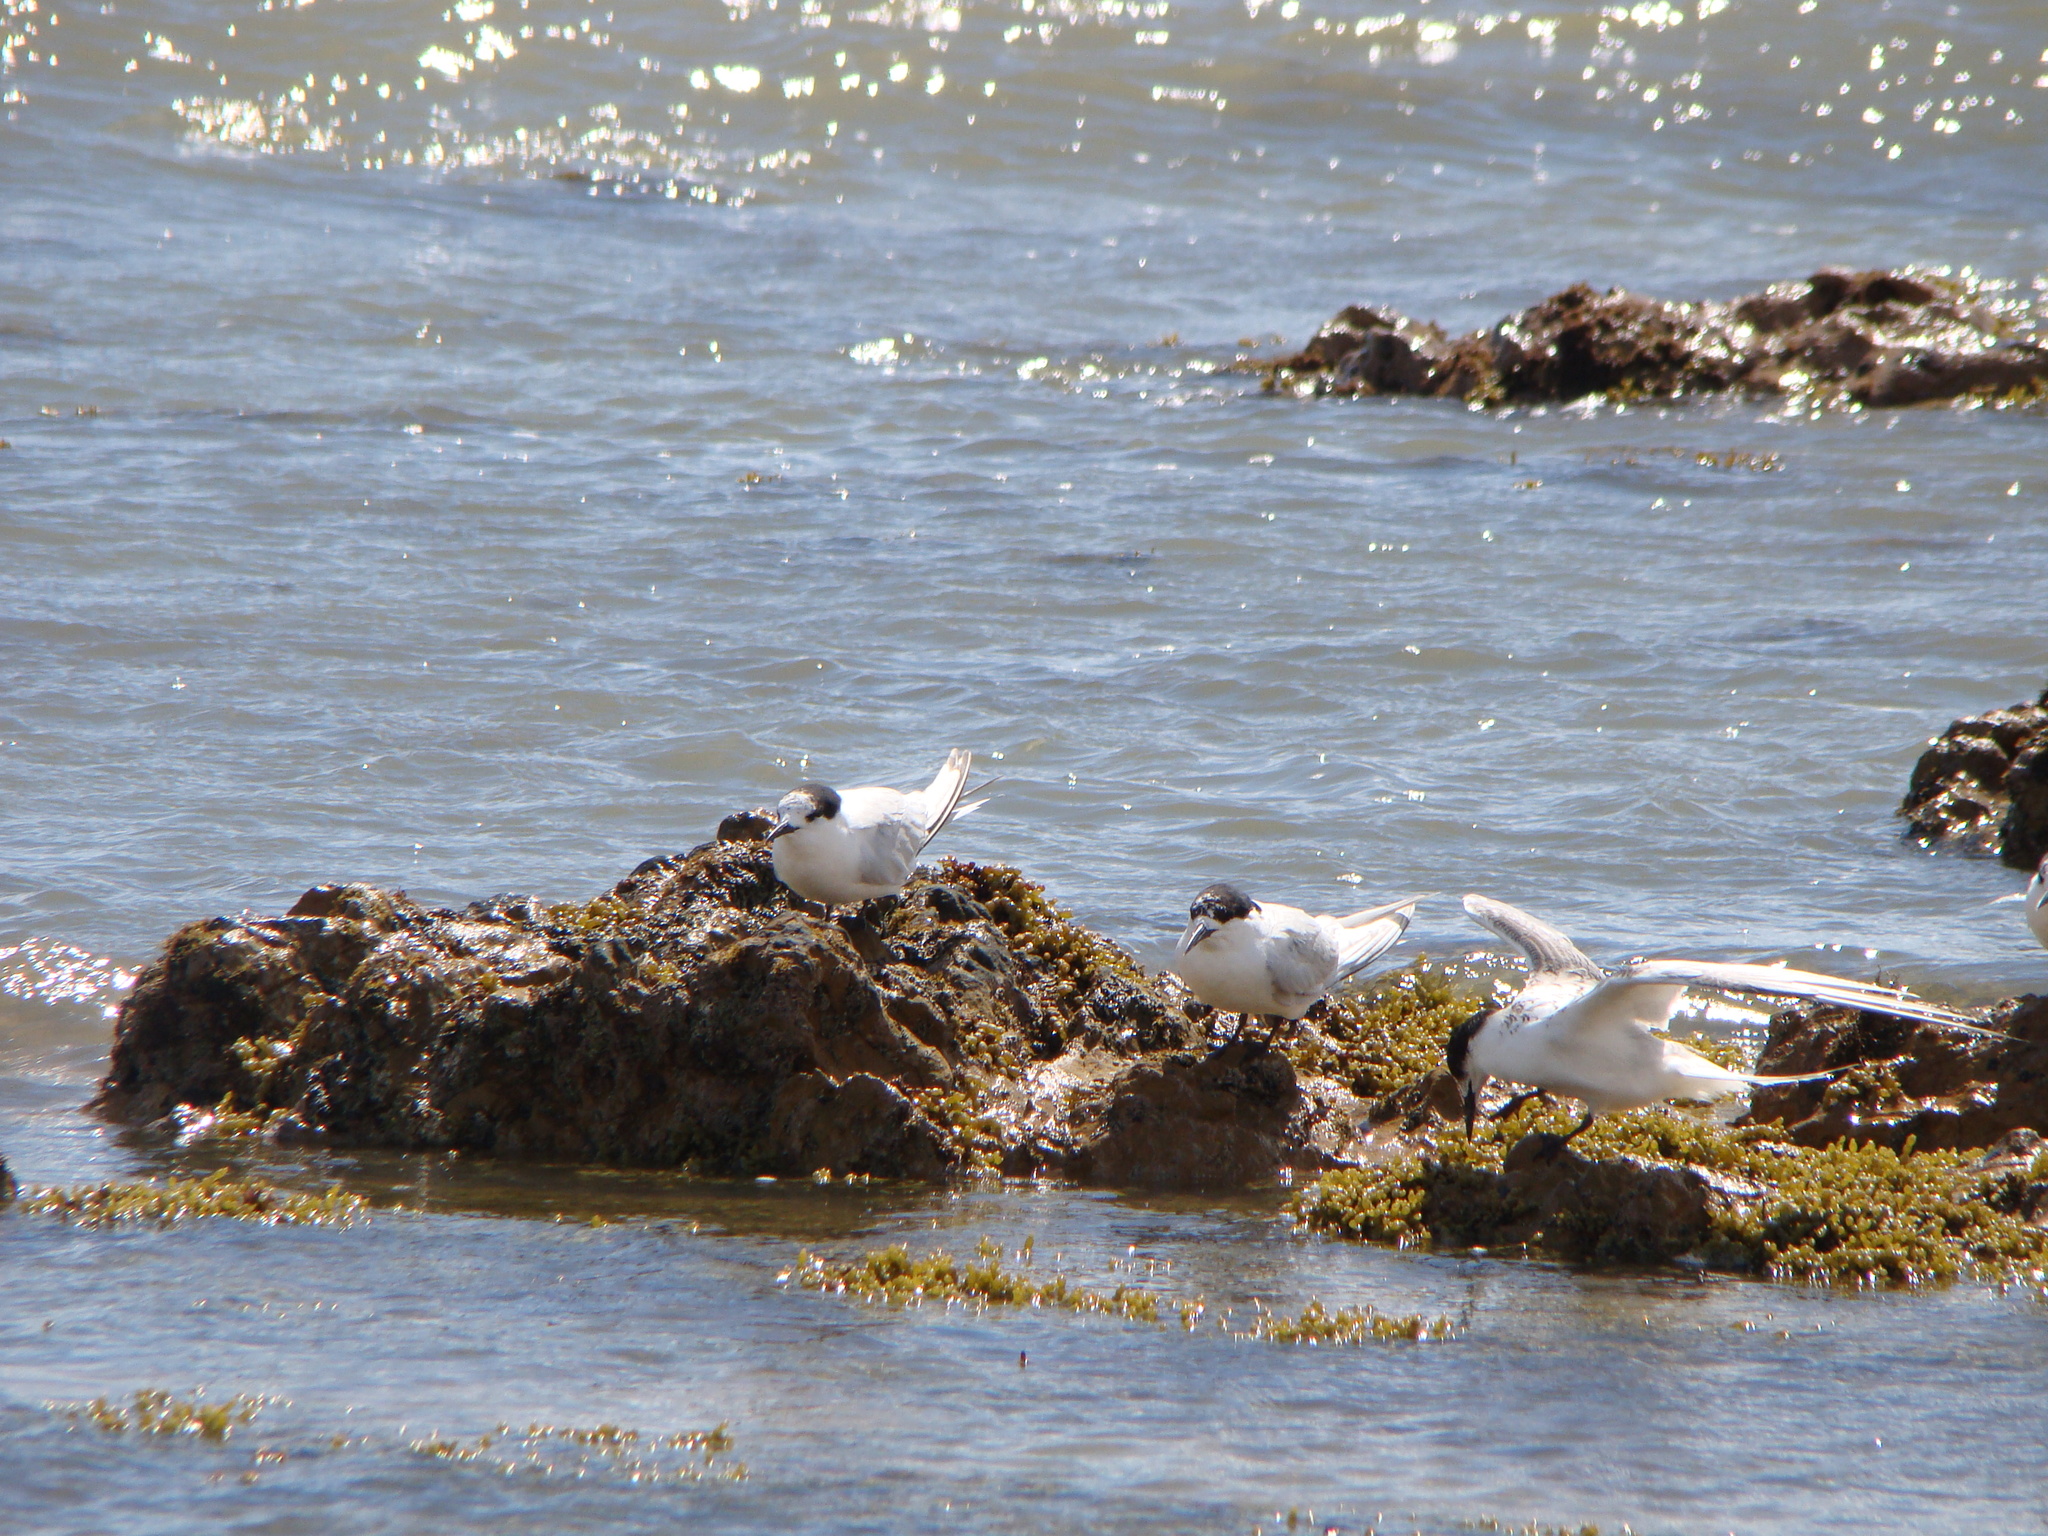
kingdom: Animalia
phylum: Chordata
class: Aves
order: Charadriiformes
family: Laridae
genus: Sterna
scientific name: Sterna striata
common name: White-fronted tern
